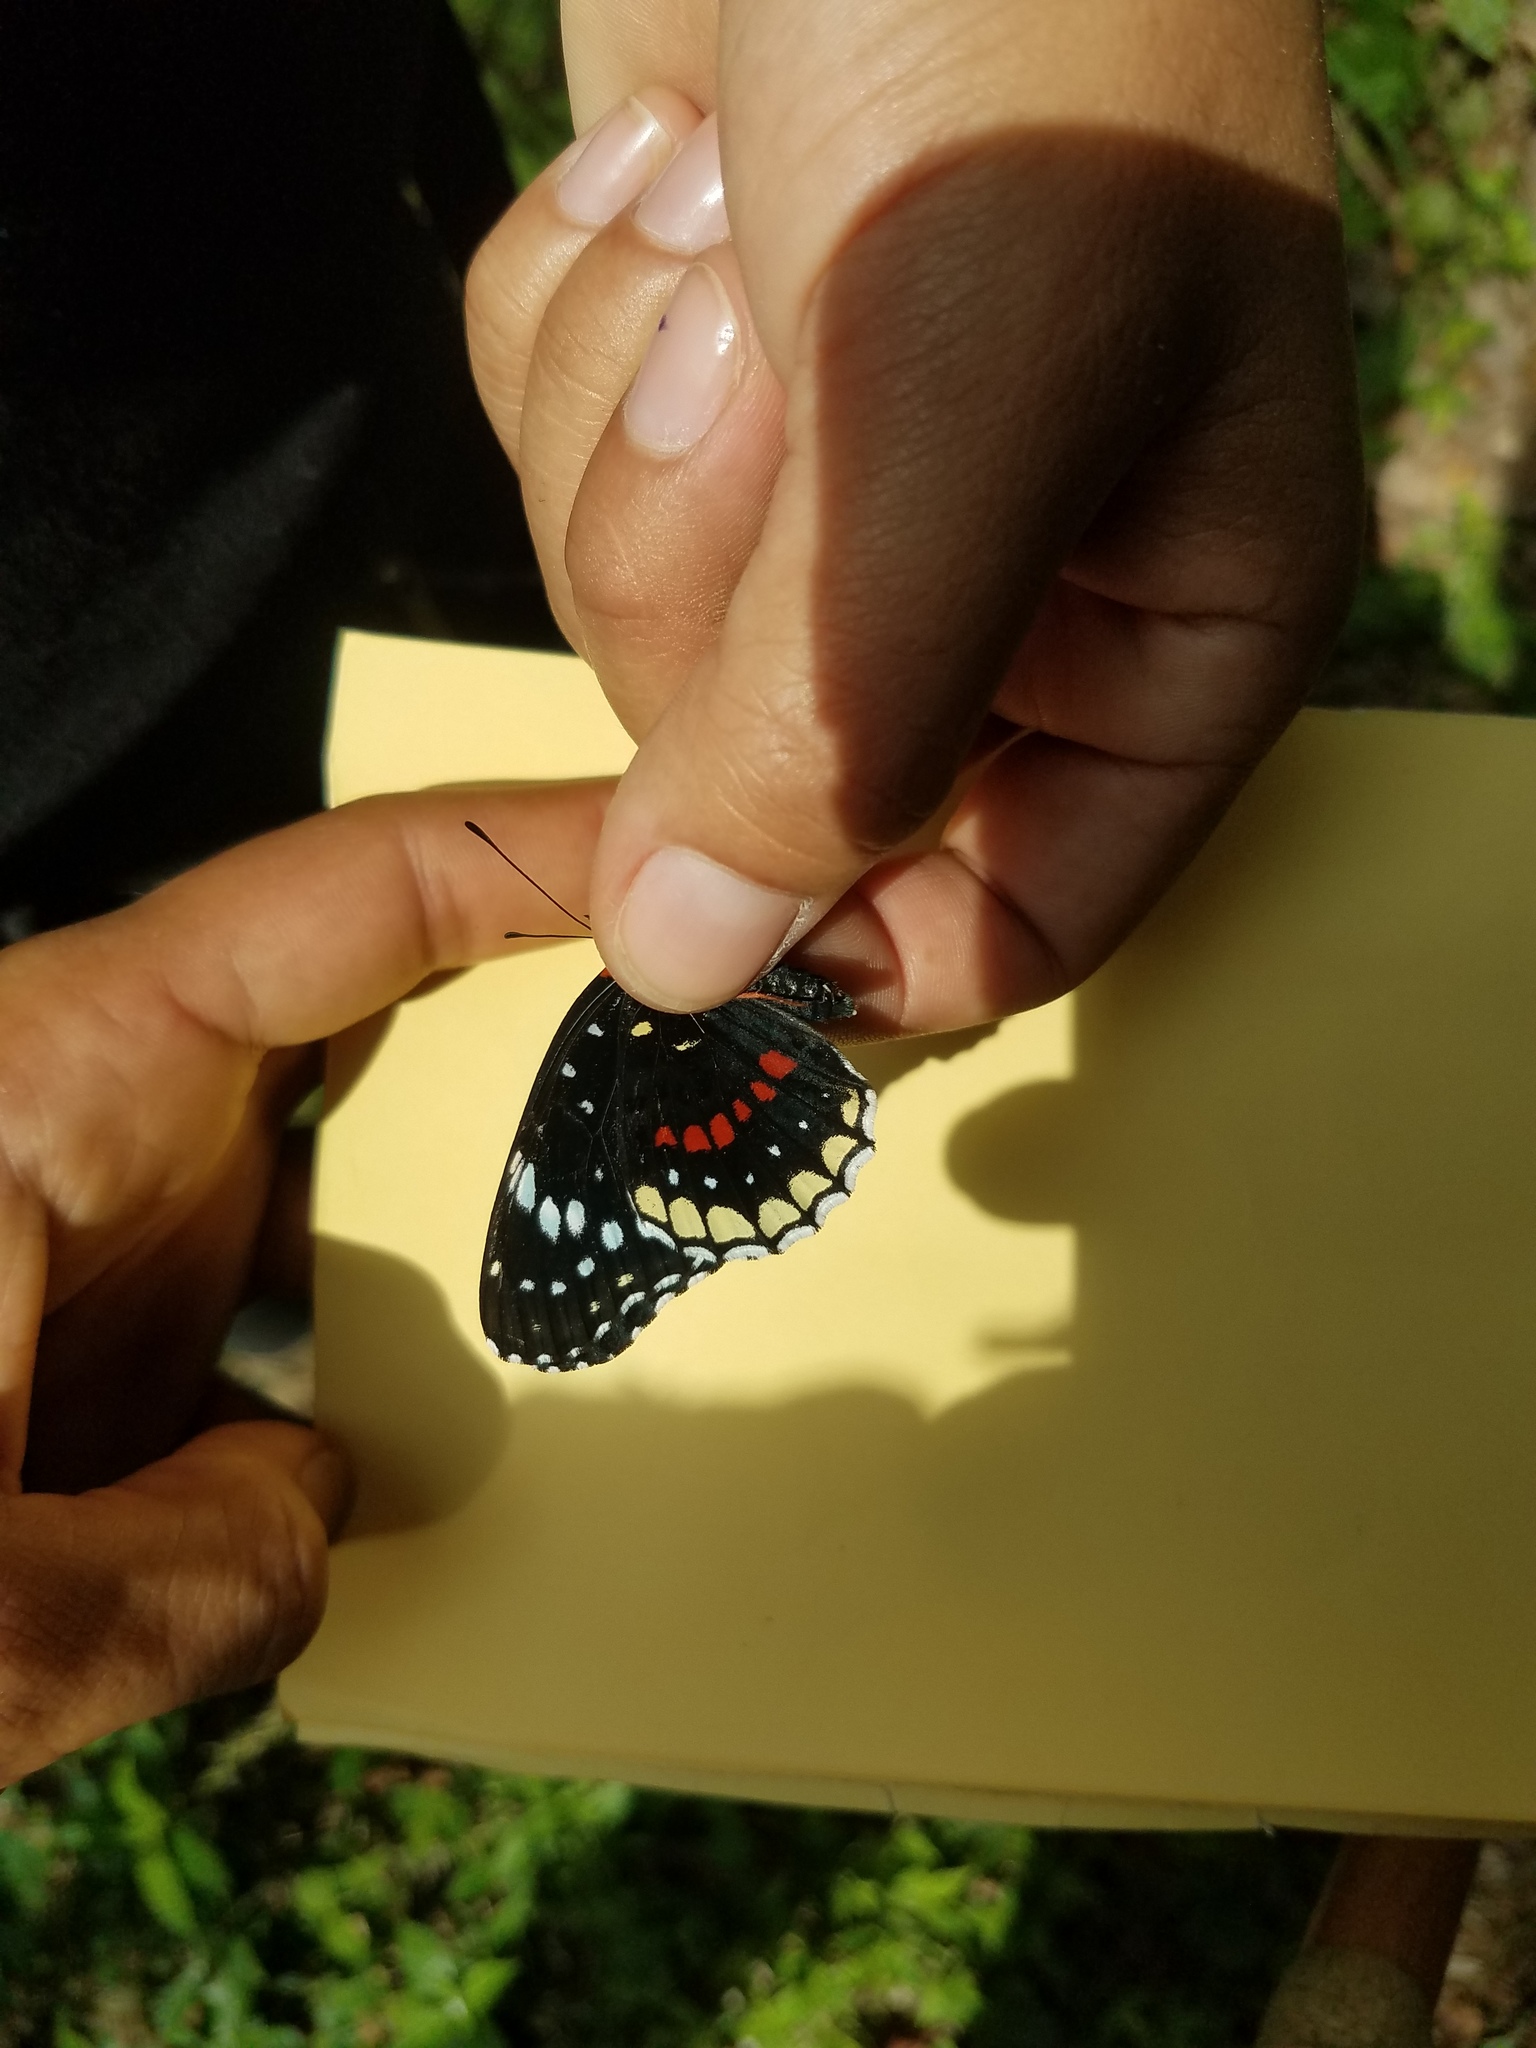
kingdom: Animalia
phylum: Arthropoda
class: Insecta
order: Lepidoptera
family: Nymphalidae
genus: Chlosyne
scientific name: Chlosyne hippodrome
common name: Simple patch
